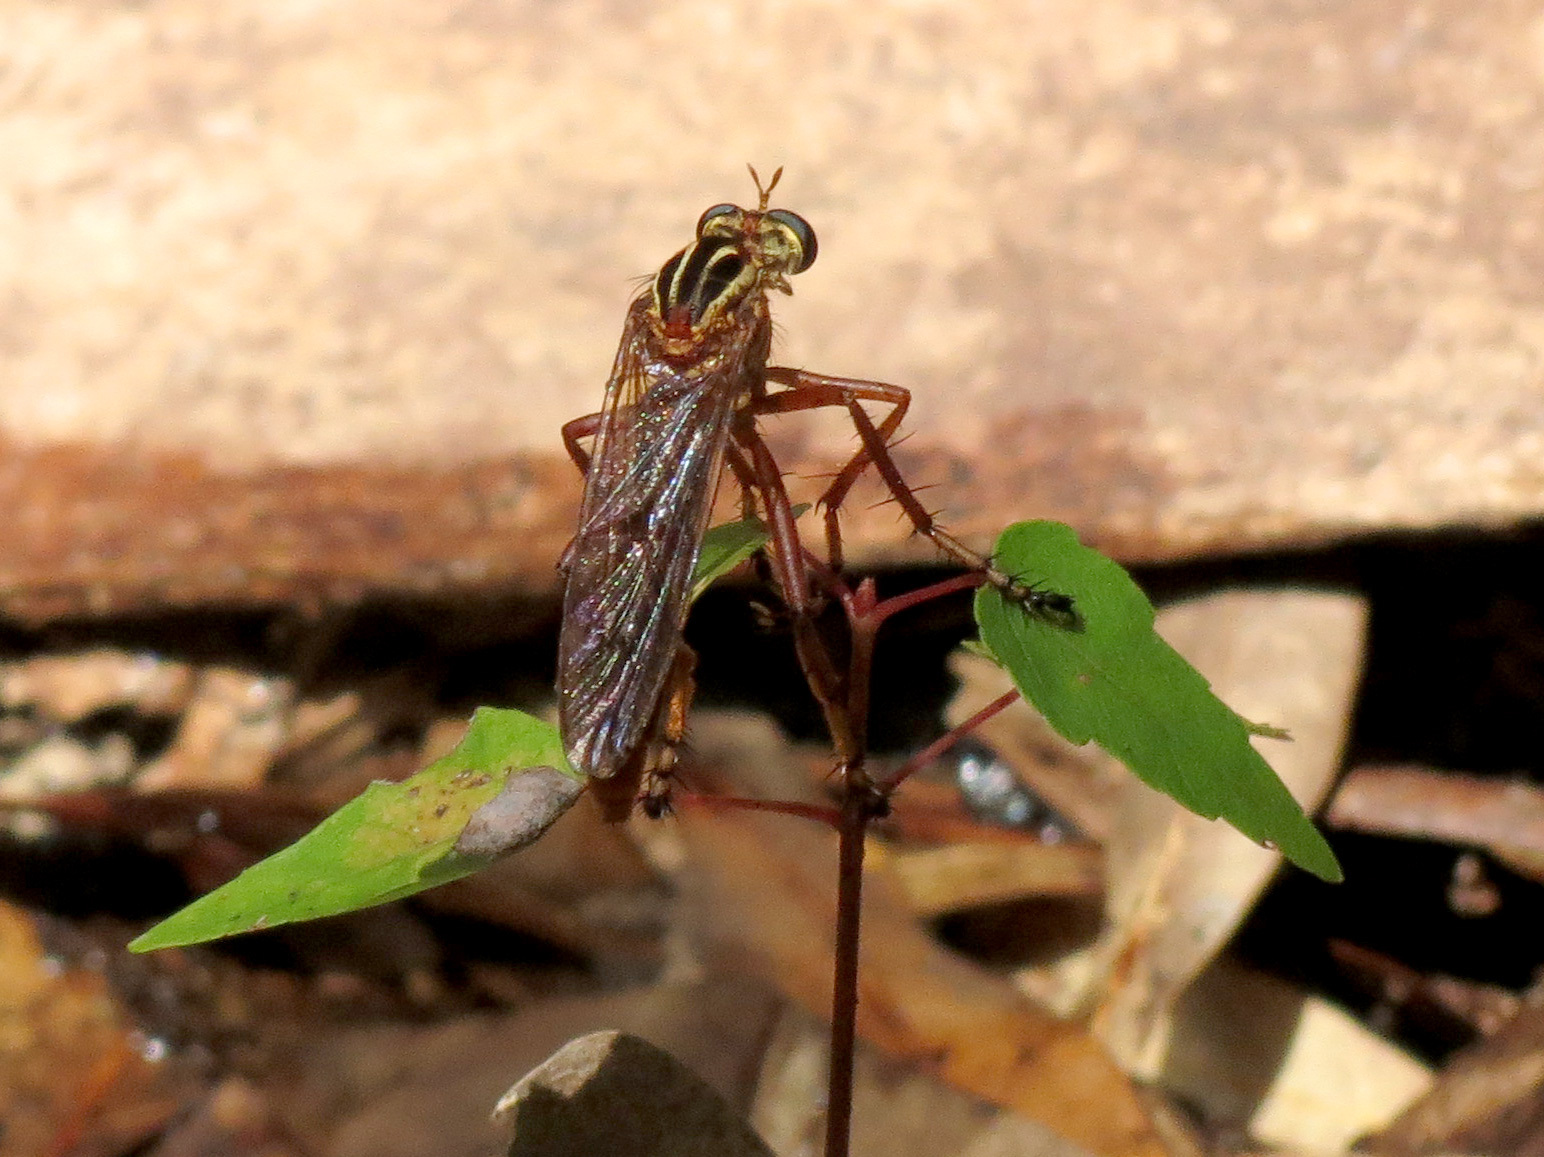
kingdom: Animalia
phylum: Arthropoda
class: Insecta
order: Diptera
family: Asilidae
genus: Diogmites
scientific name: Diogmites neoternatus
